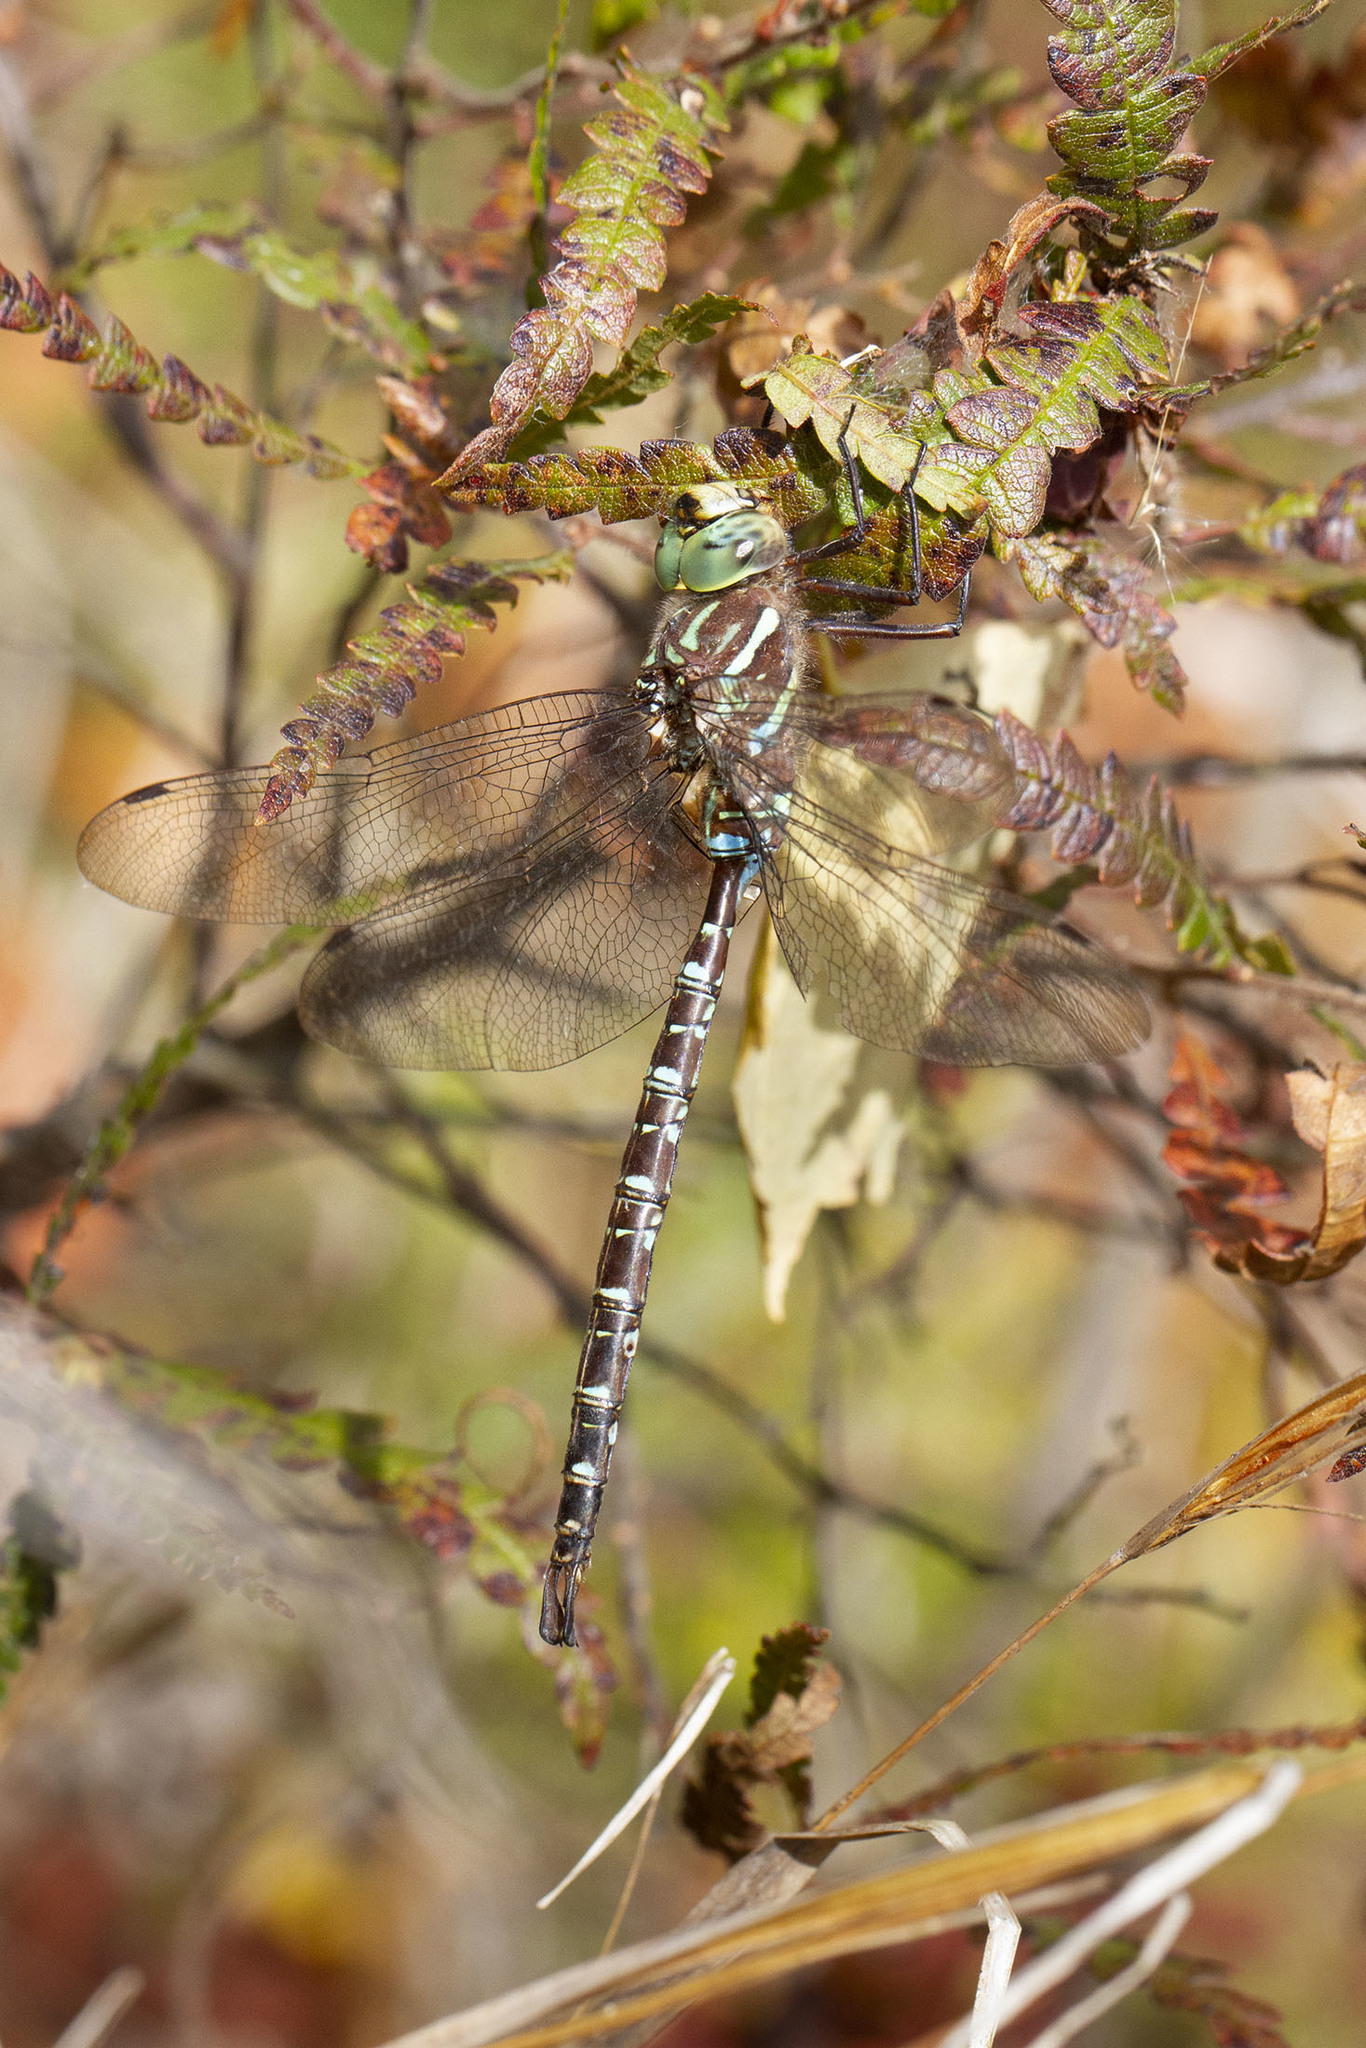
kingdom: Animalia
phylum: Arthropoda
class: Insecta
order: Odonata
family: Aeshnidae
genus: Aeshna
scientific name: Aeshna umbrosa
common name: Shadow darner
